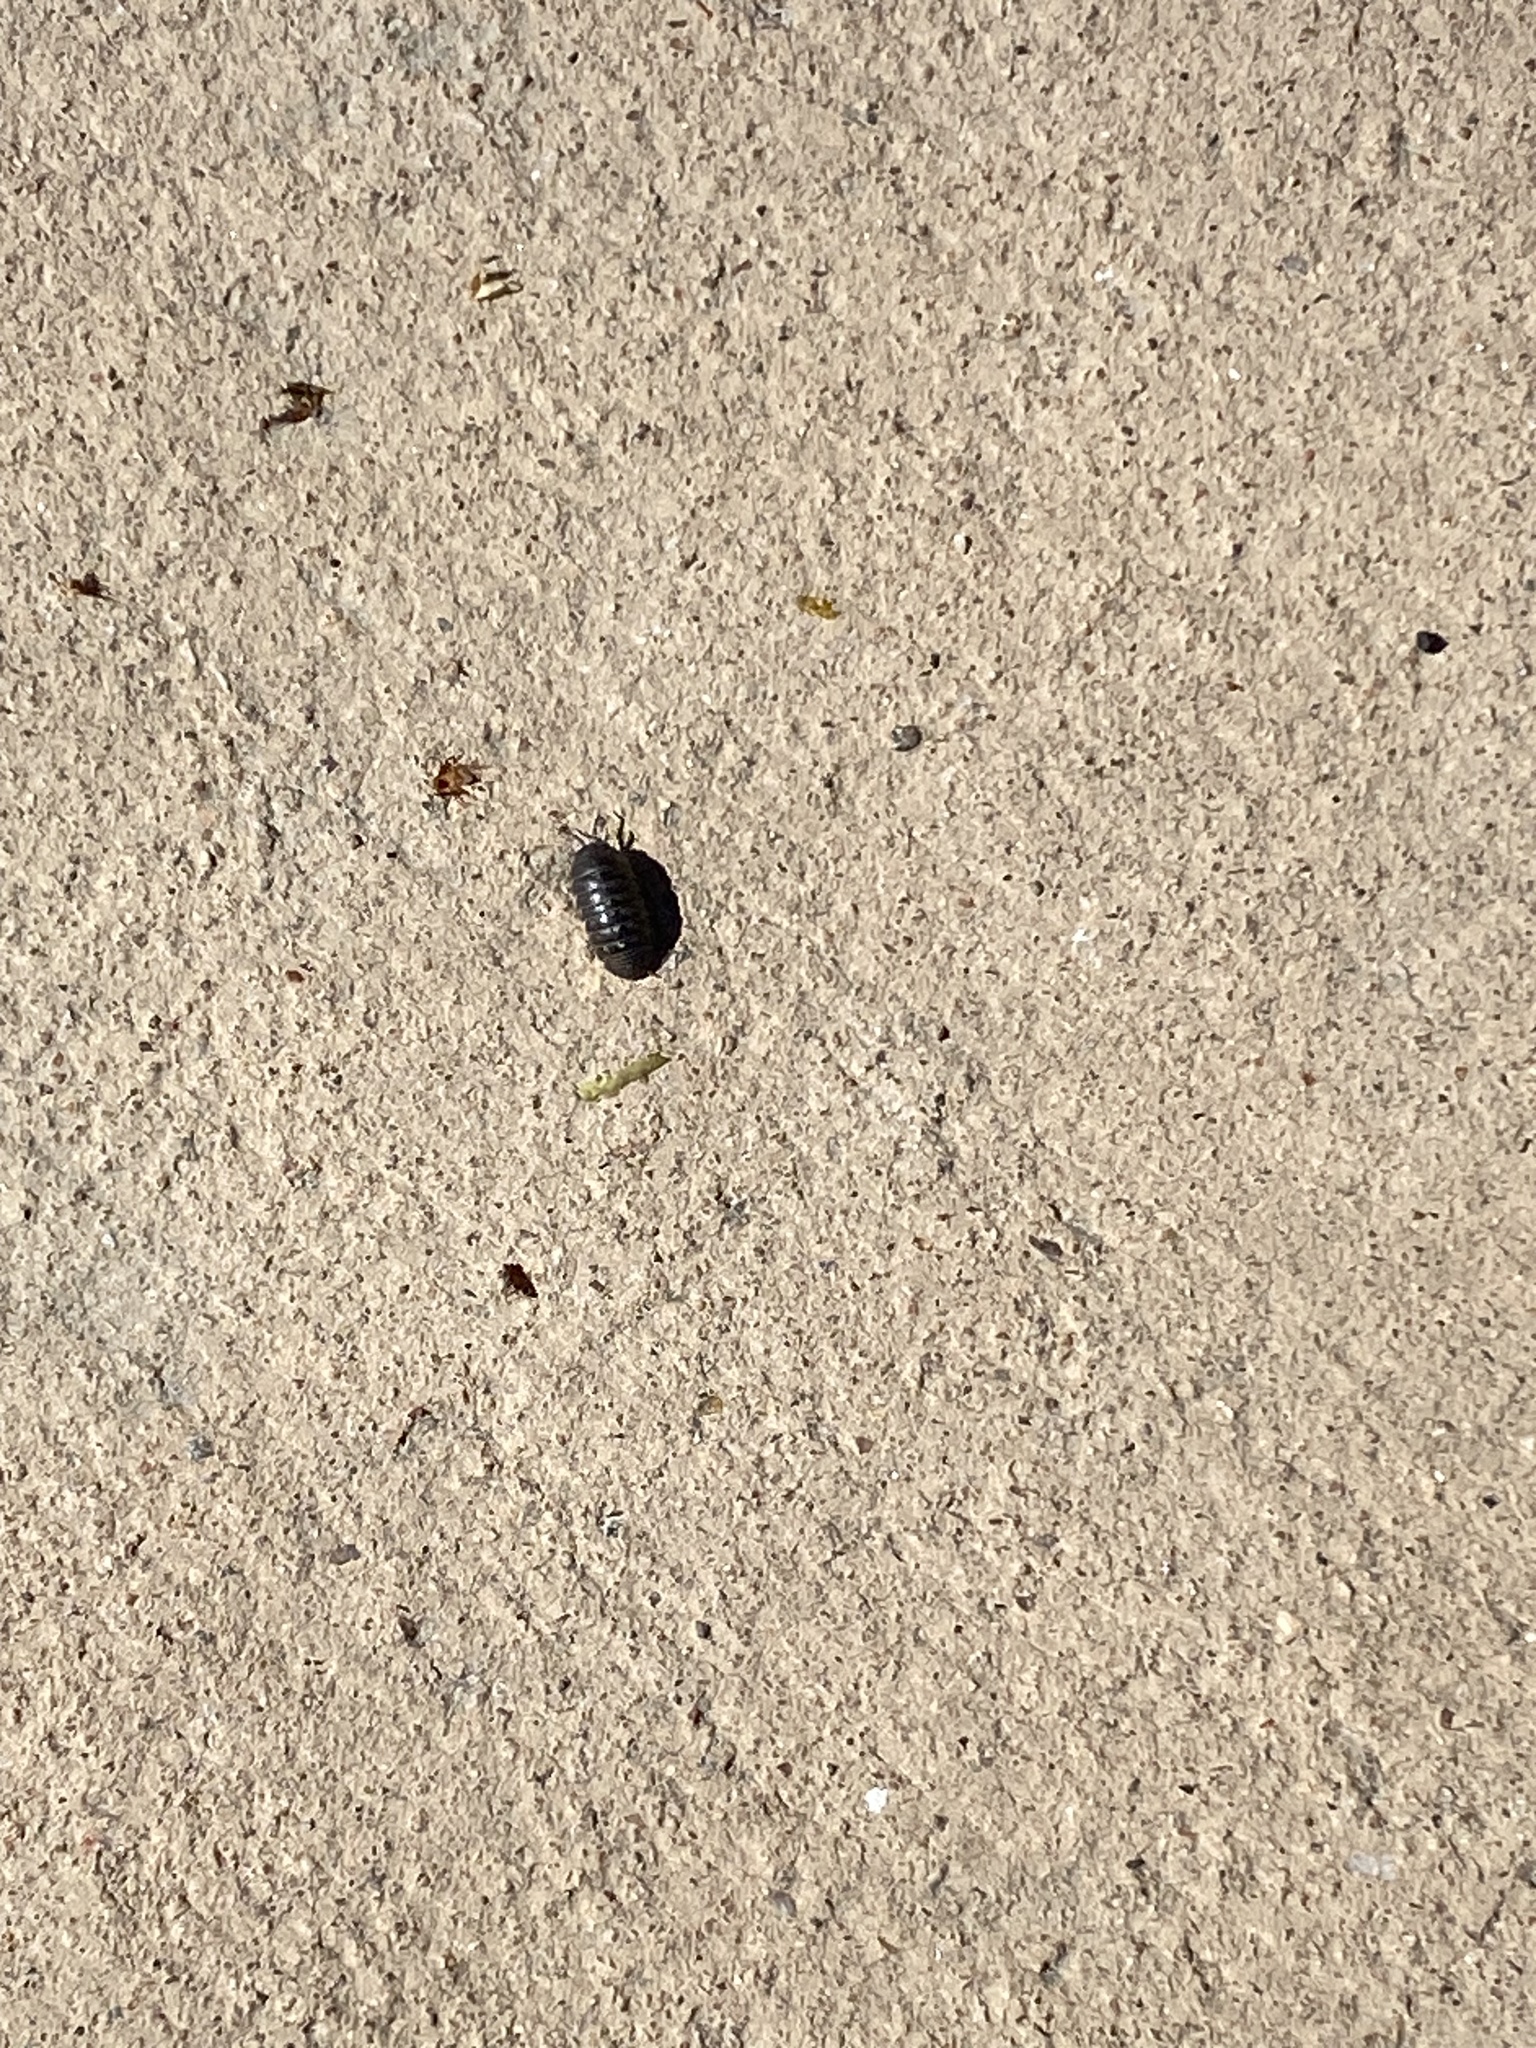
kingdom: Animalia
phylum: Arthropoda
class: Malacostraca
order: Isopoda
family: Armadillidiidae
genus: Armadillidium
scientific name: Armadillidium vulgare
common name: Common pill woodlouse
